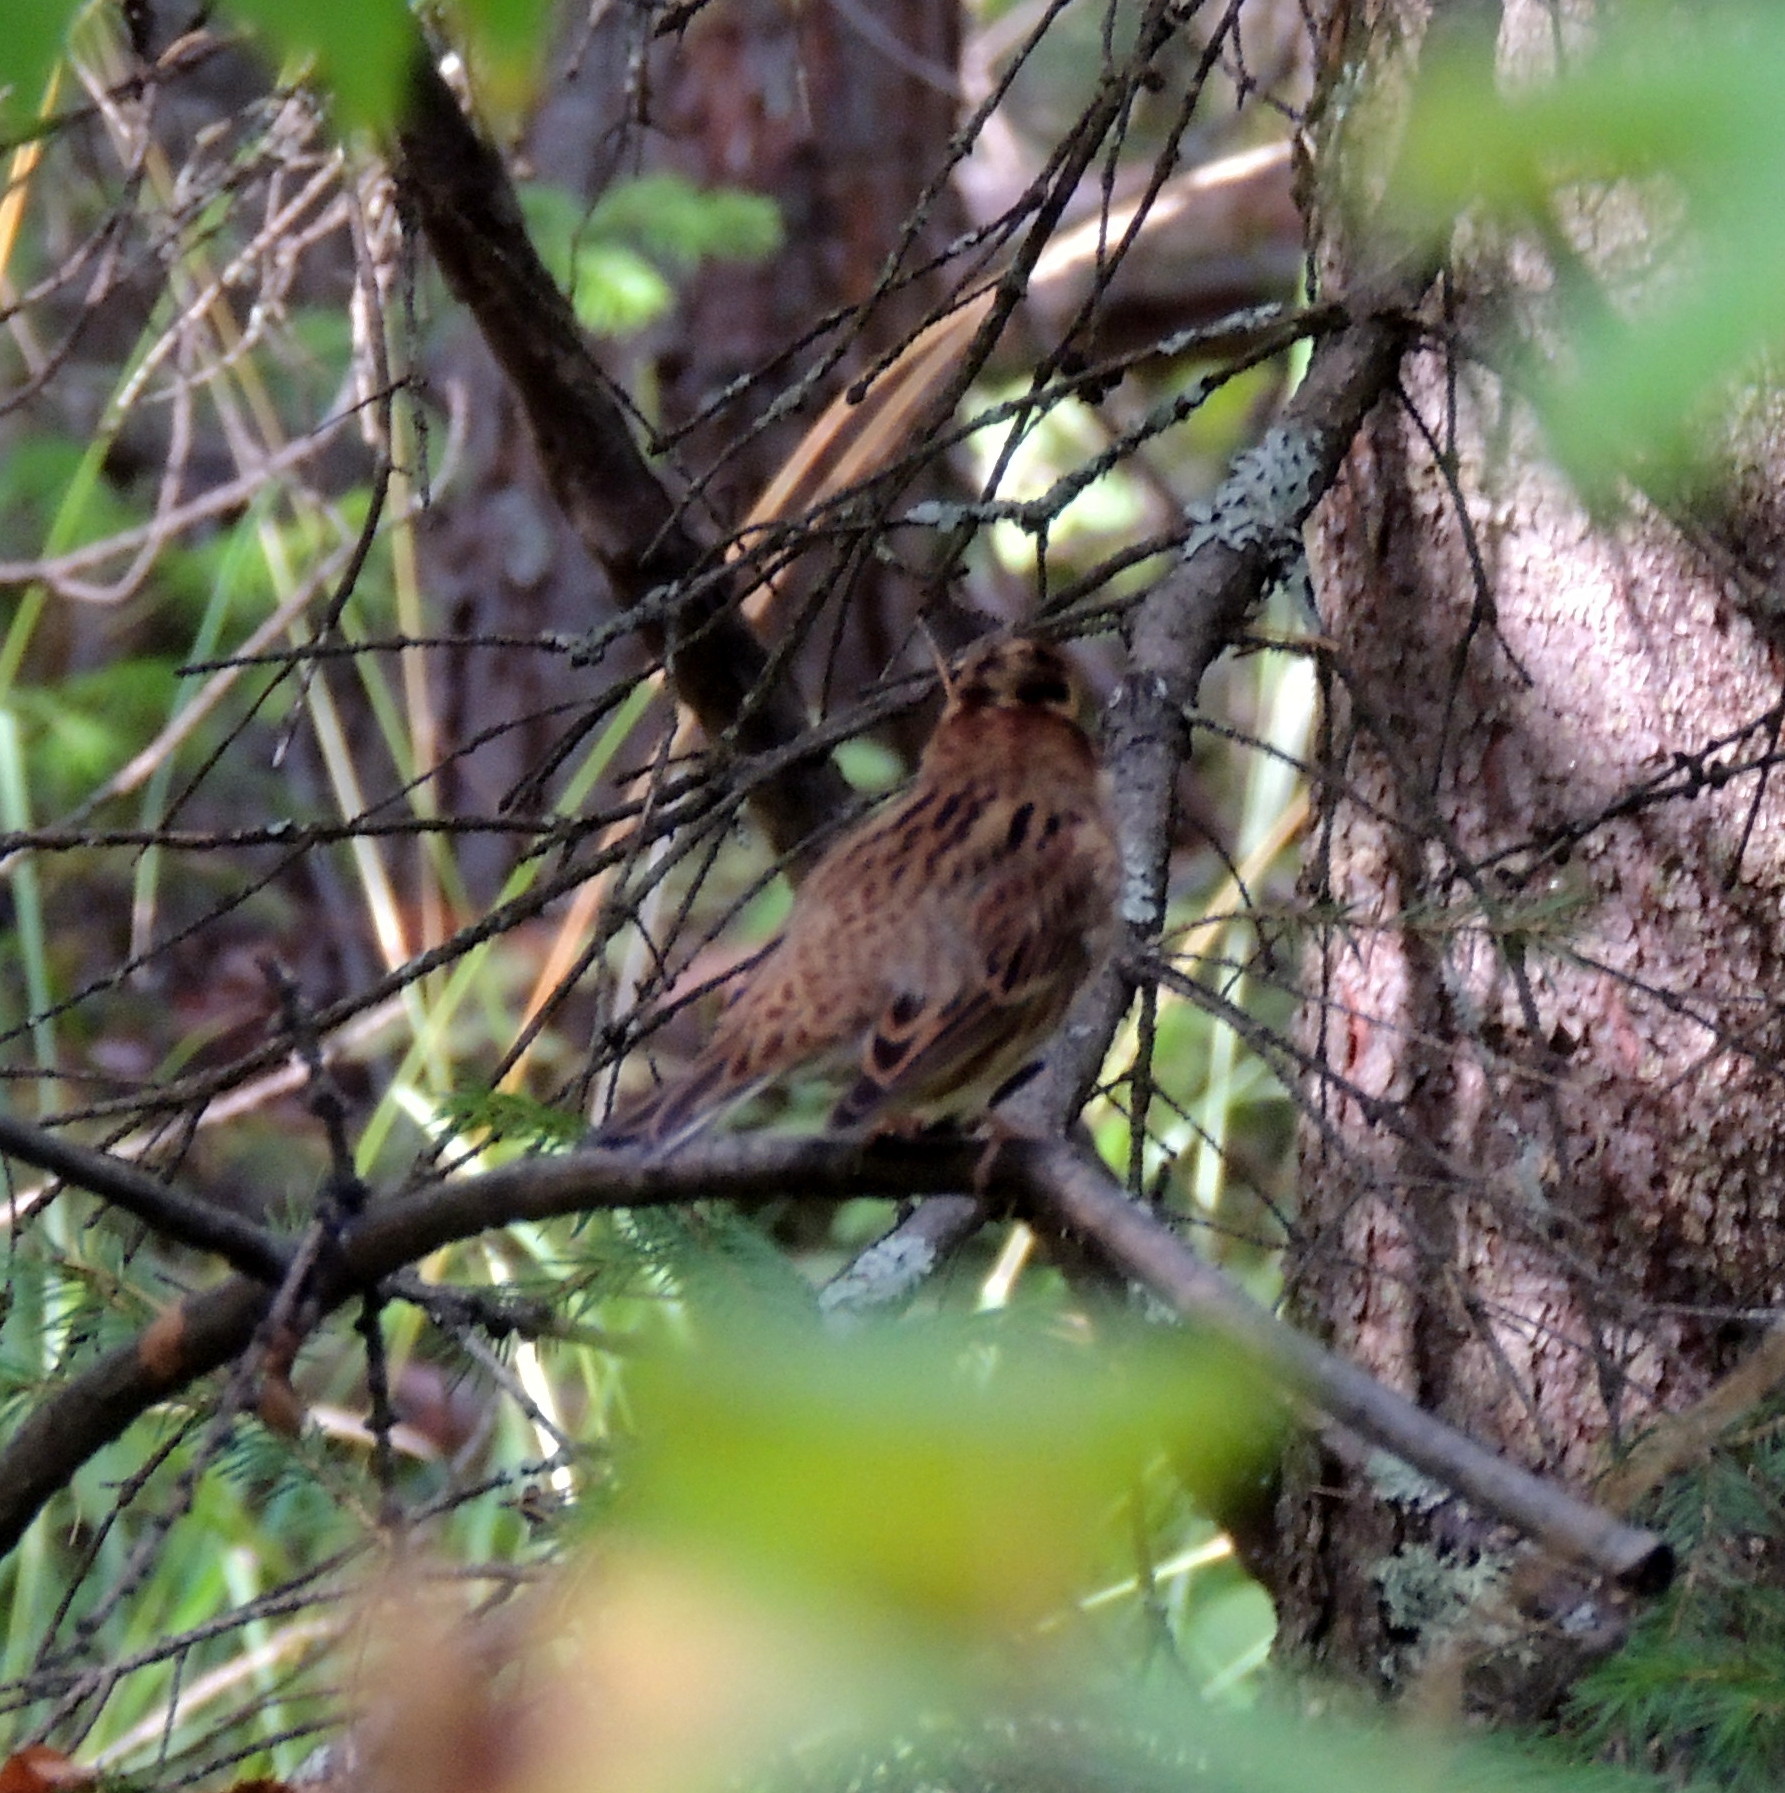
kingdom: Animalia
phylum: Chordata
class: Aves
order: Passeriformes
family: Emberizidae
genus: Emberiza
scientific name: Emberiza rustica
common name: Rustic bunting
